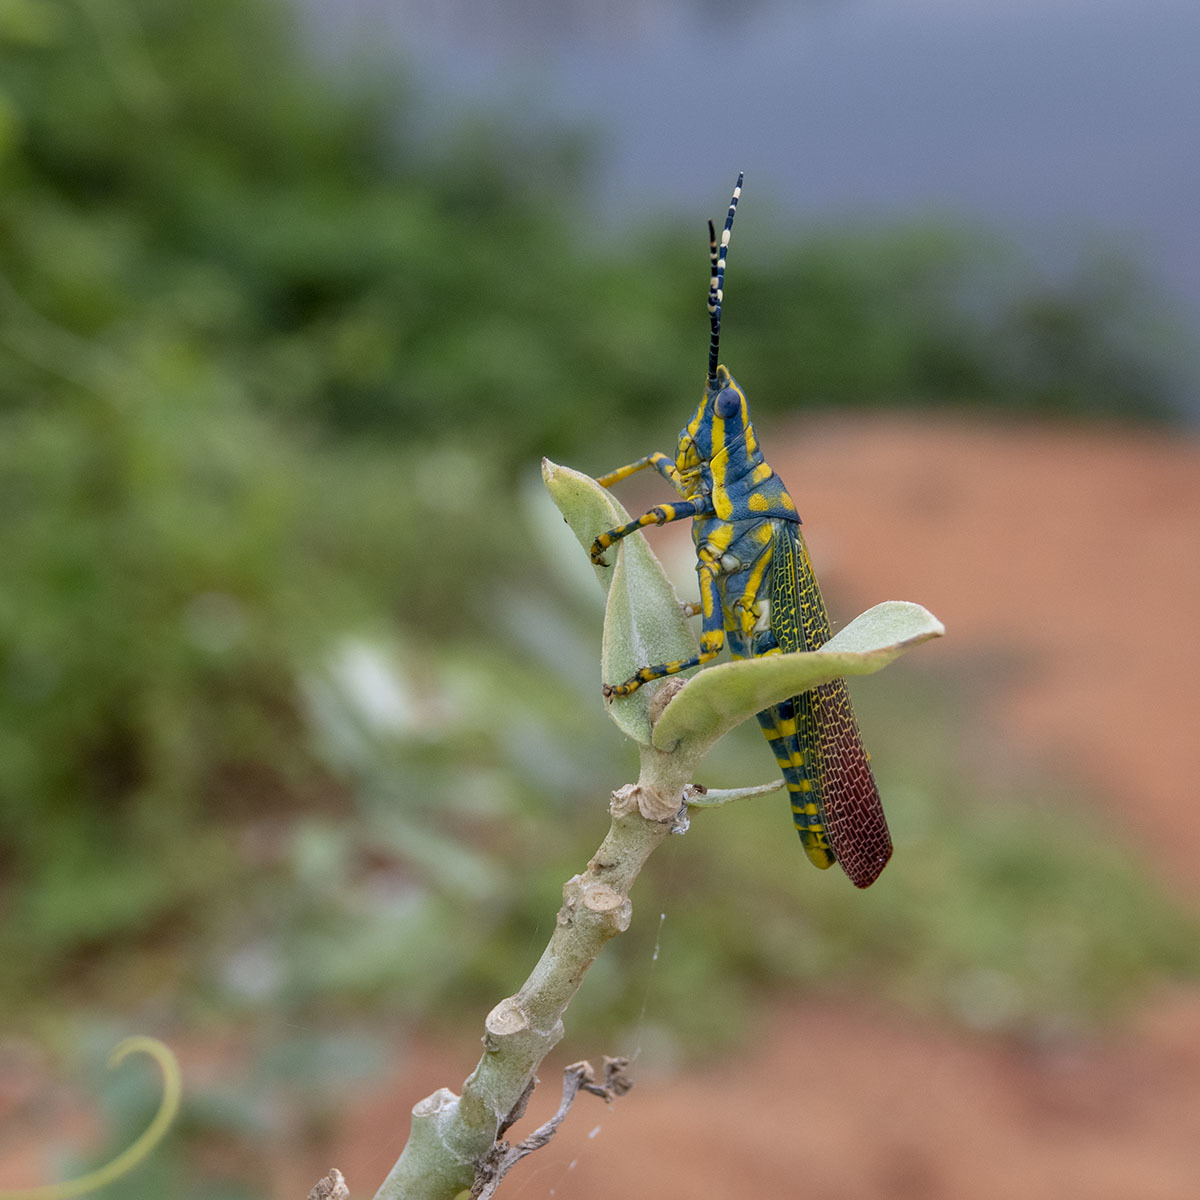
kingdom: Animalia
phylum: Arthropoda
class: Insecta
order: Orthoptera
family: Pyrgomorphidae
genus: Poekilocerus
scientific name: Poekilocerus pictus
